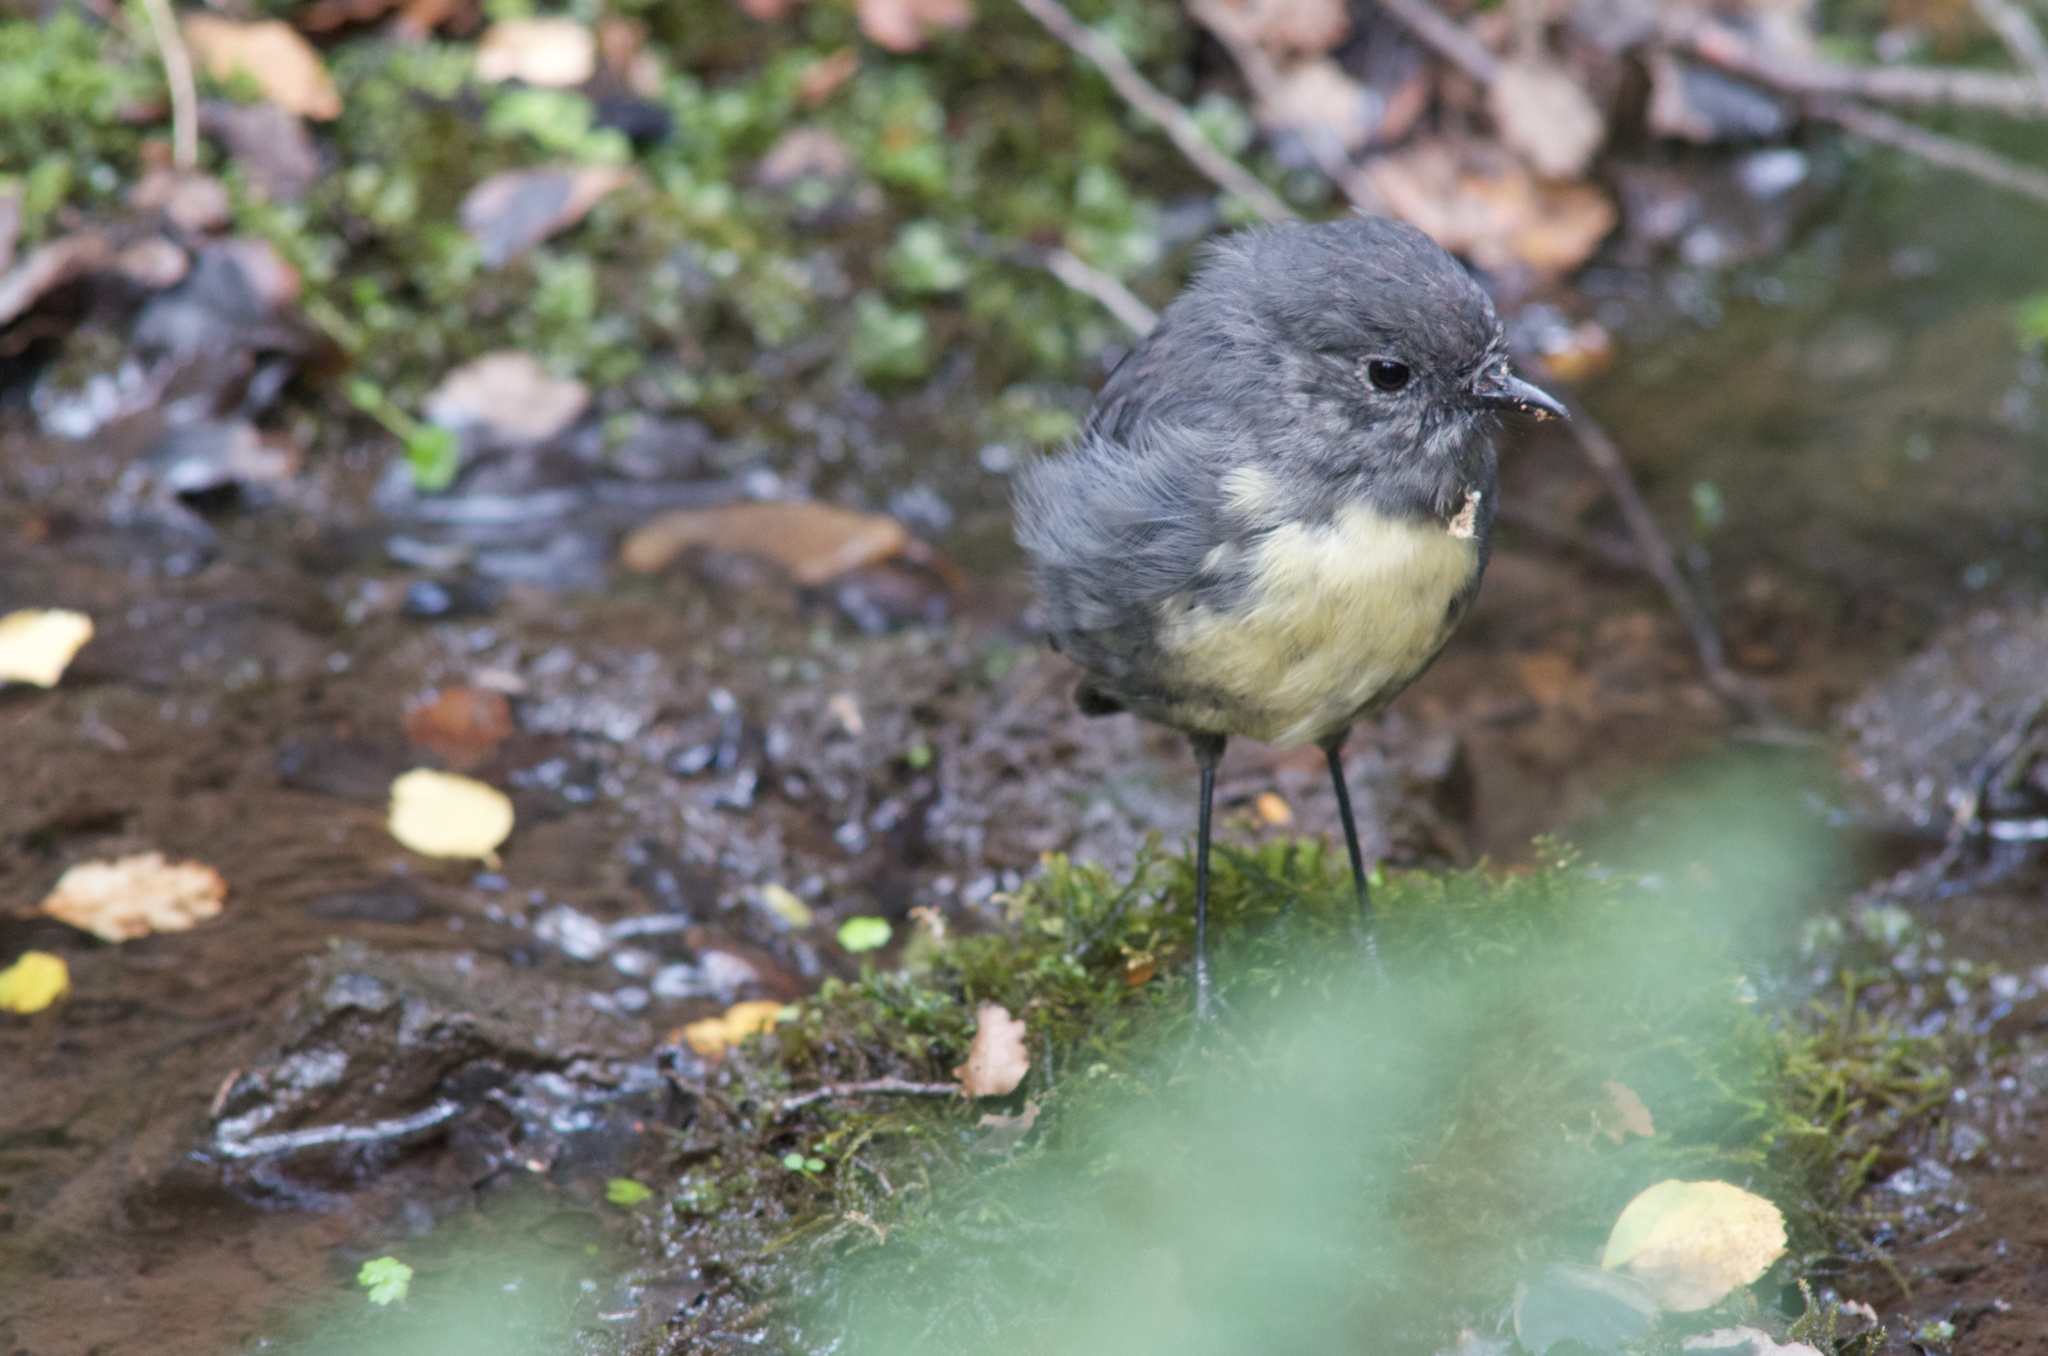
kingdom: Animalia
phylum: Chordata
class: Aves
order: Passeriformes
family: Petroicidae
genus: Petroica
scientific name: Petroica australis
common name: New zealand robin
